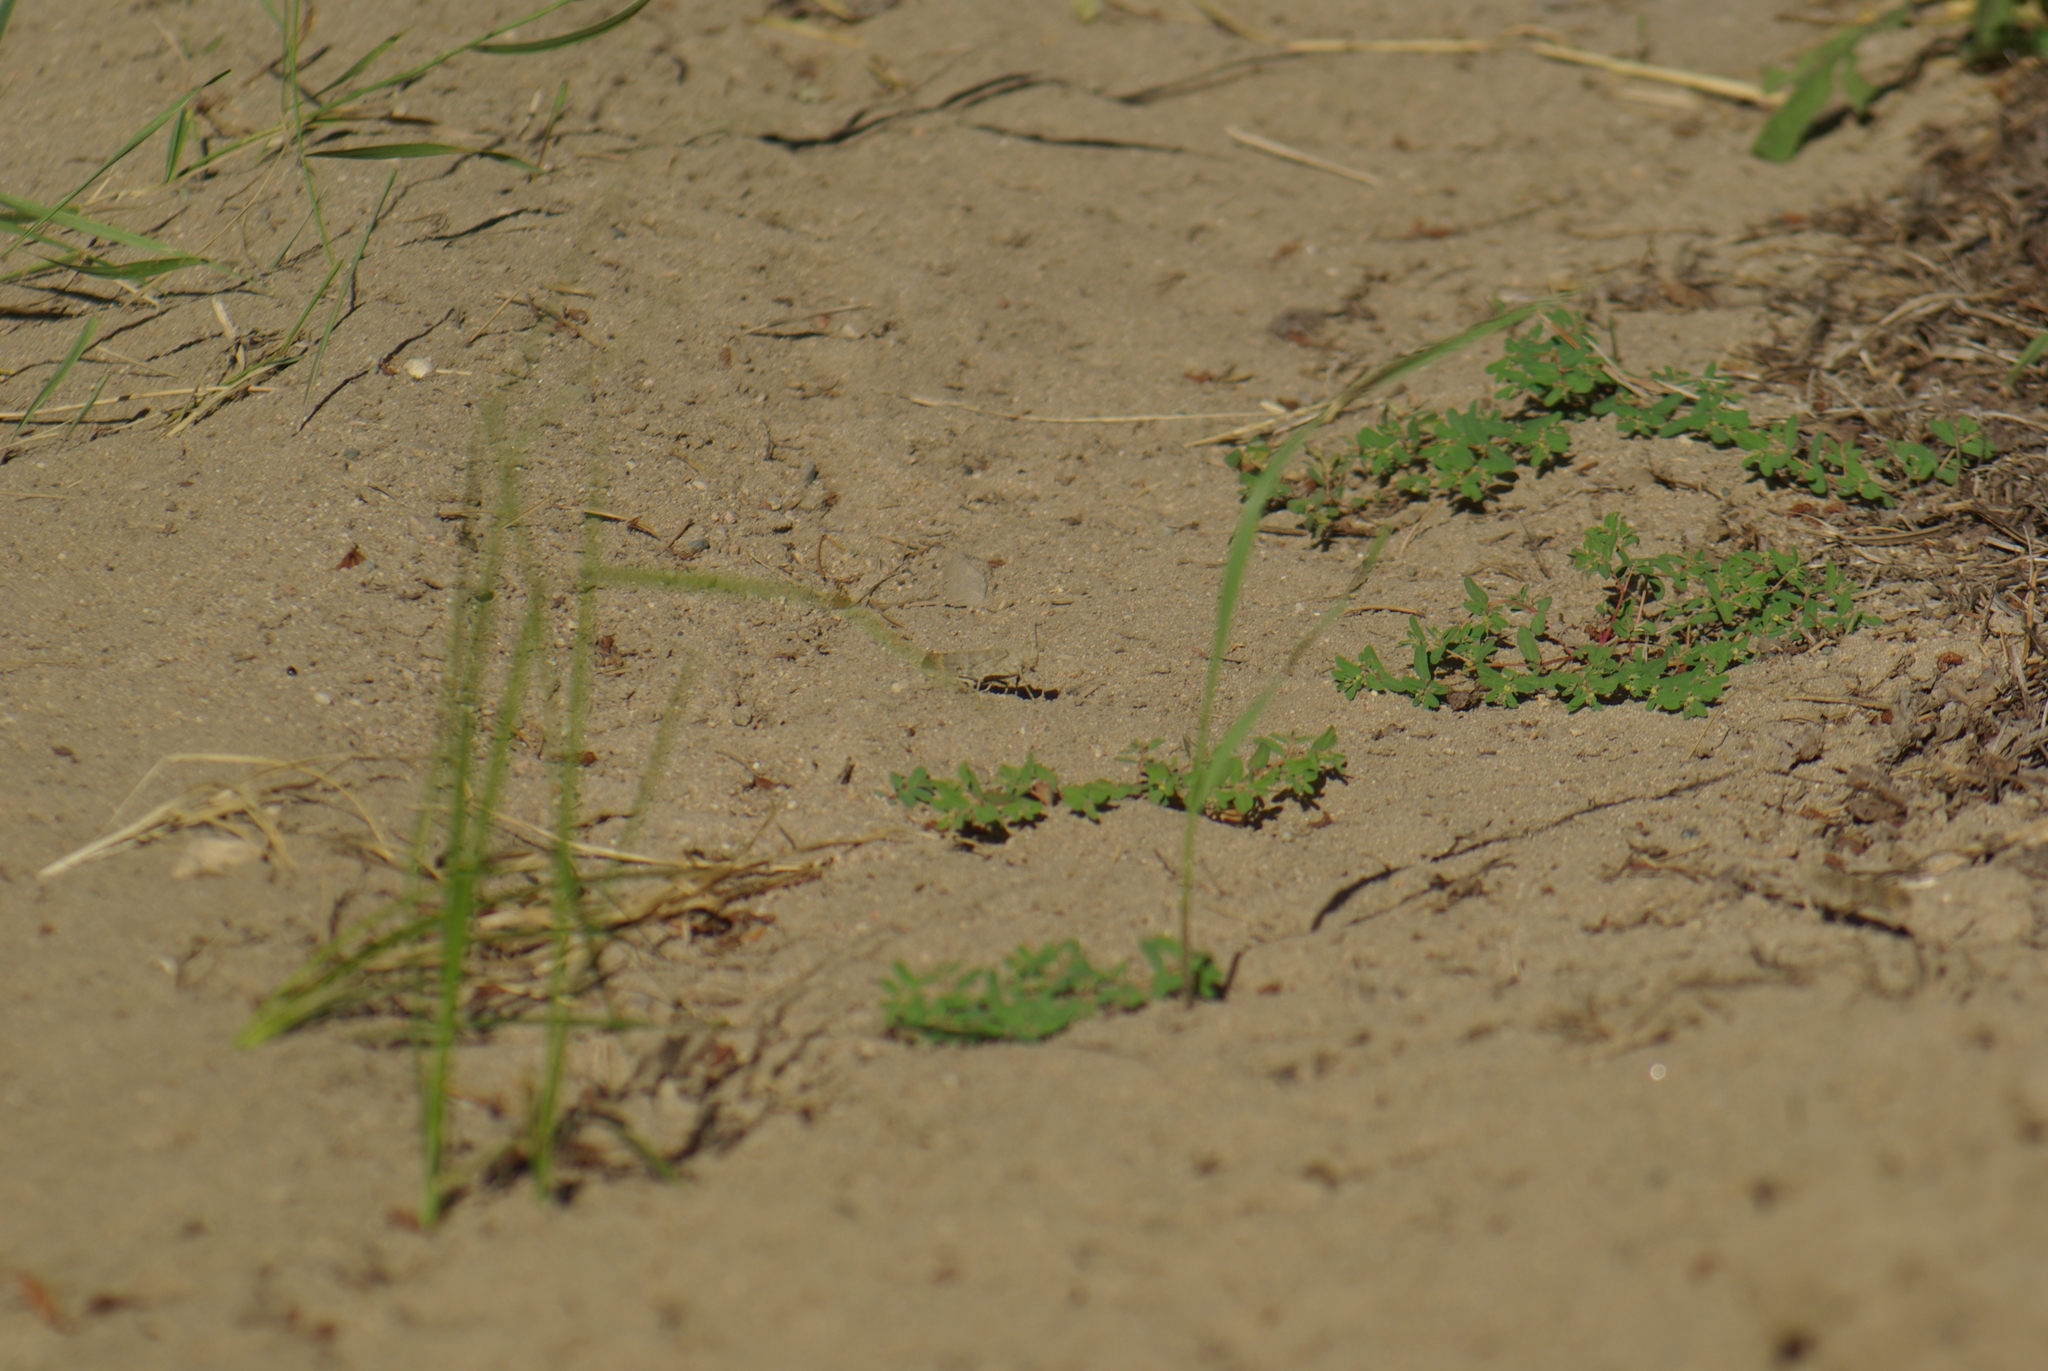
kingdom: Animalia
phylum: Arthropoda
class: Insecta
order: Orthoptera
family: Acrididae
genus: Dissosteira
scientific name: Dissosteira carolina
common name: Carolina grasshopper
